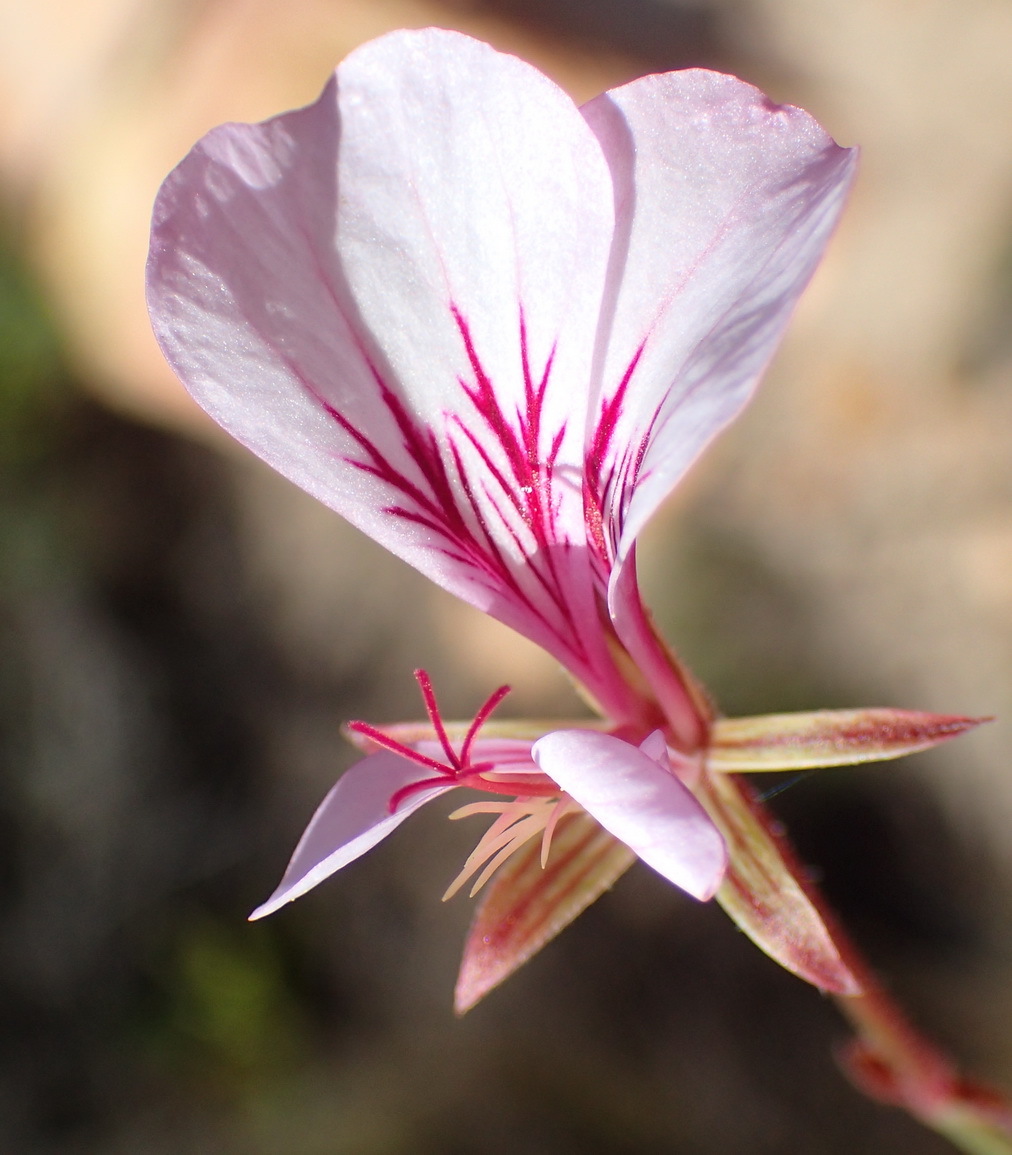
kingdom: Plantae
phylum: Tracheophyta
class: Magnoliopsida
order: Geraniales
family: Geraniaceae
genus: Pelargonium
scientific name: Pelargonium caucalifolium
